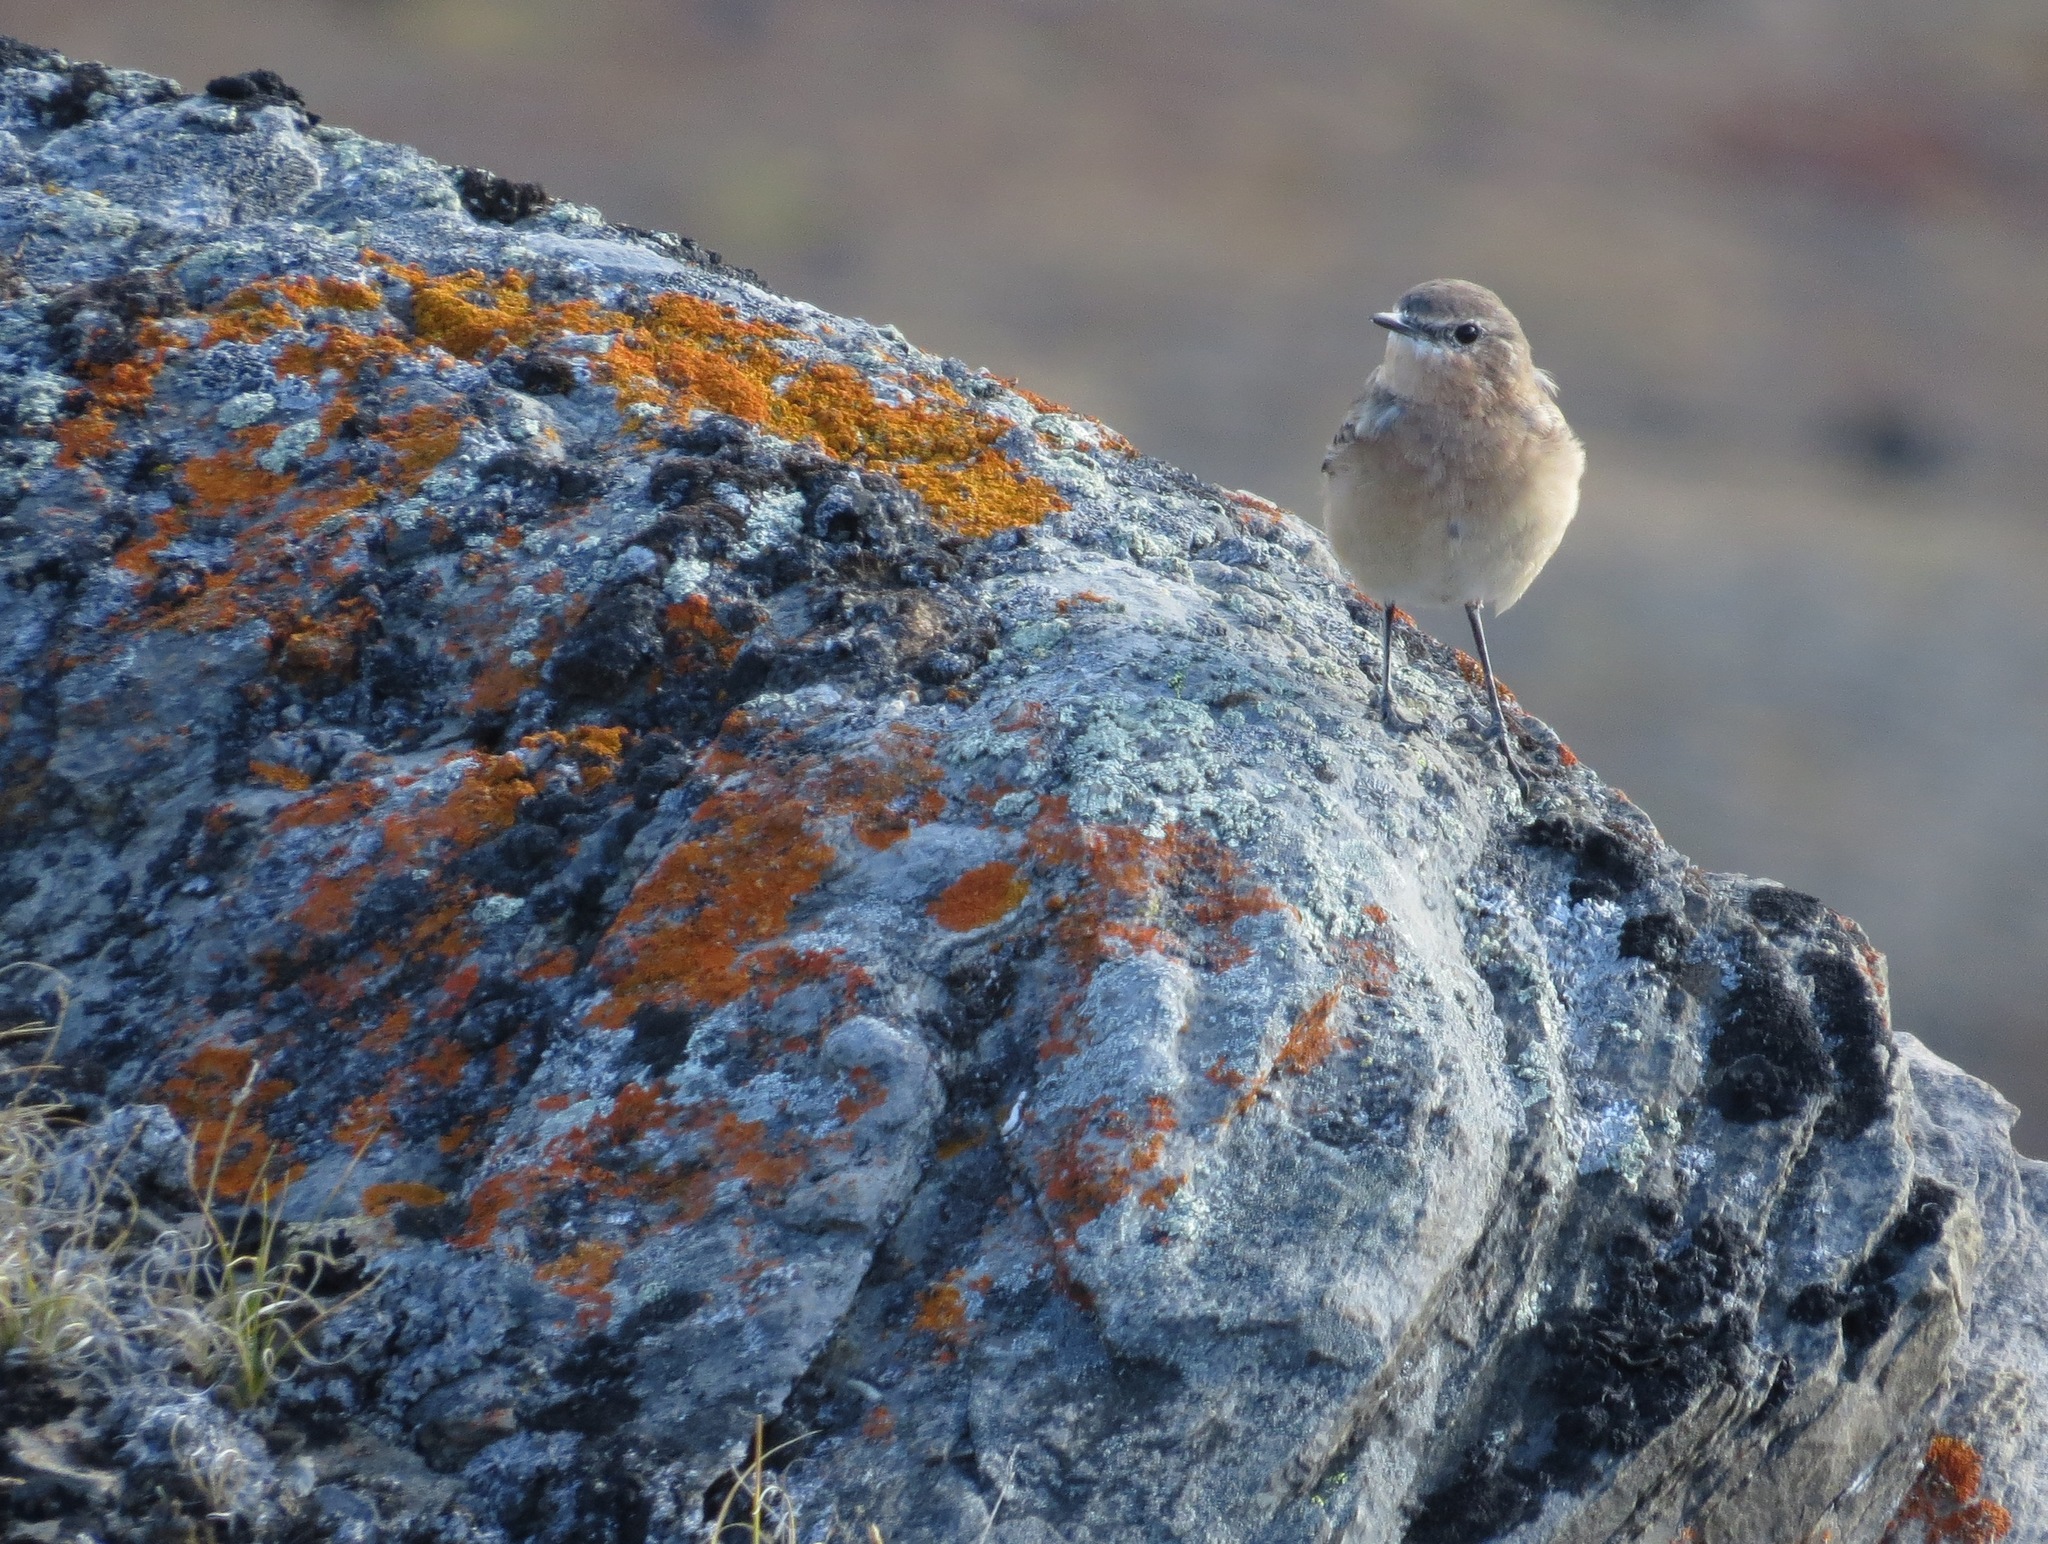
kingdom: Animalia
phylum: Chordata
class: Aves
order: Passeriformes
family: Muscicapidae
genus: Oenanthe
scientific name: Oenanthe oenanthe
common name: Northern wheatear
